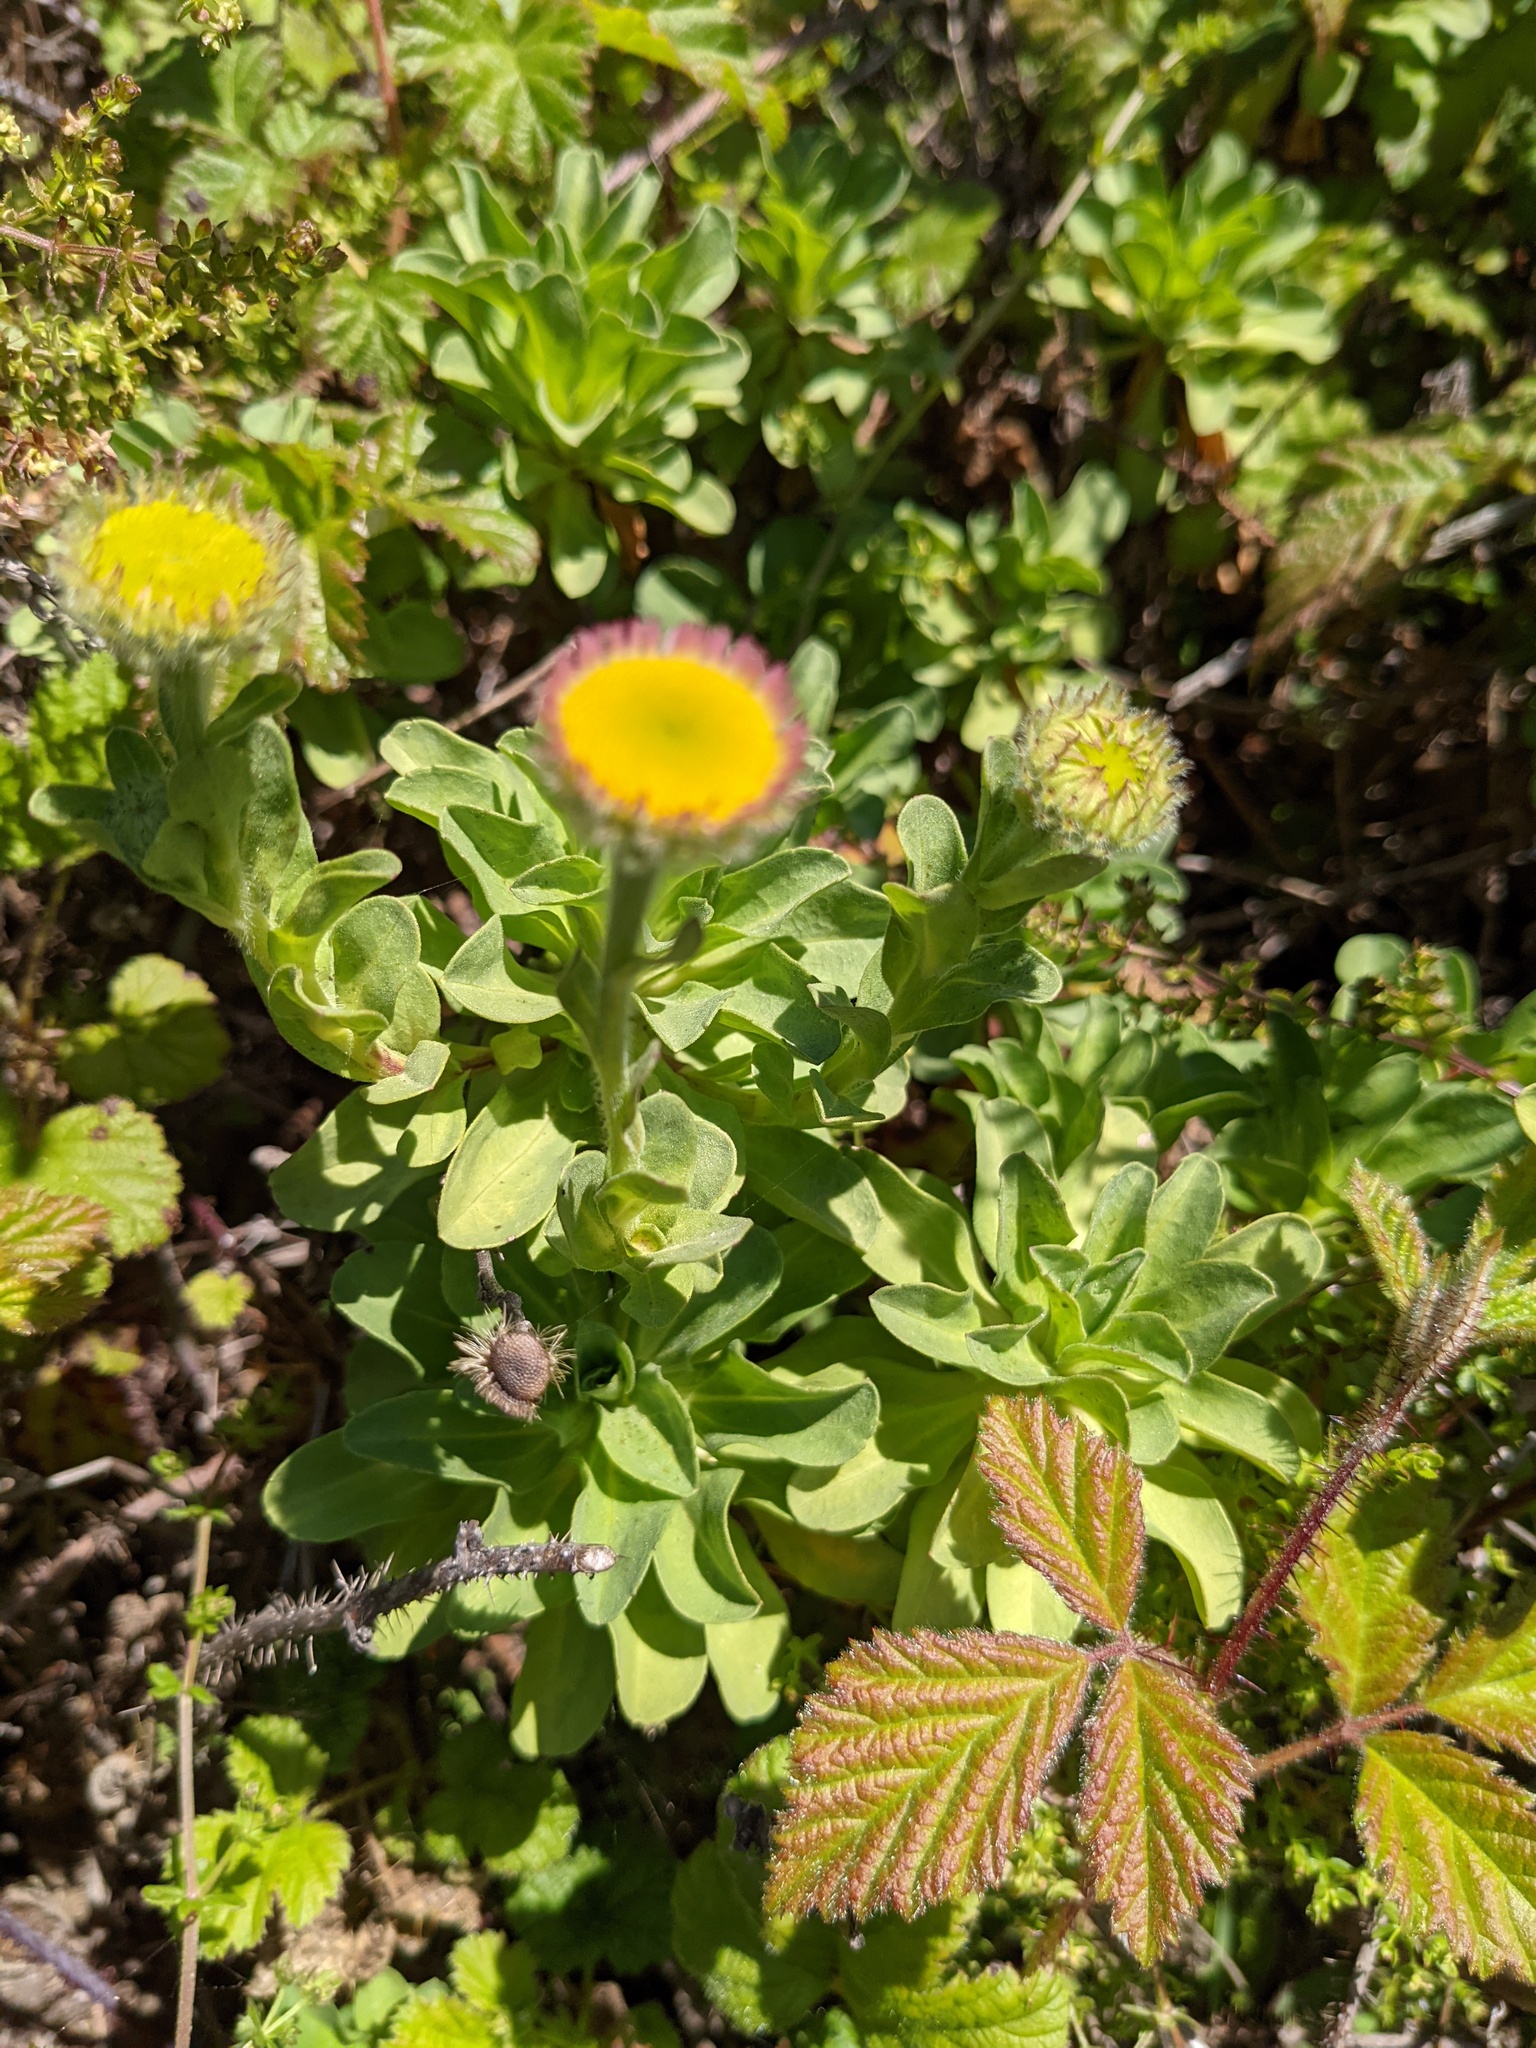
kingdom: Plantae
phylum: Tracheophyta
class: Magnoliopsida
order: Asterales
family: Asteraceae
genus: Erigeron
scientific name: Erigeron glaucus
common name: Seaside daisy
